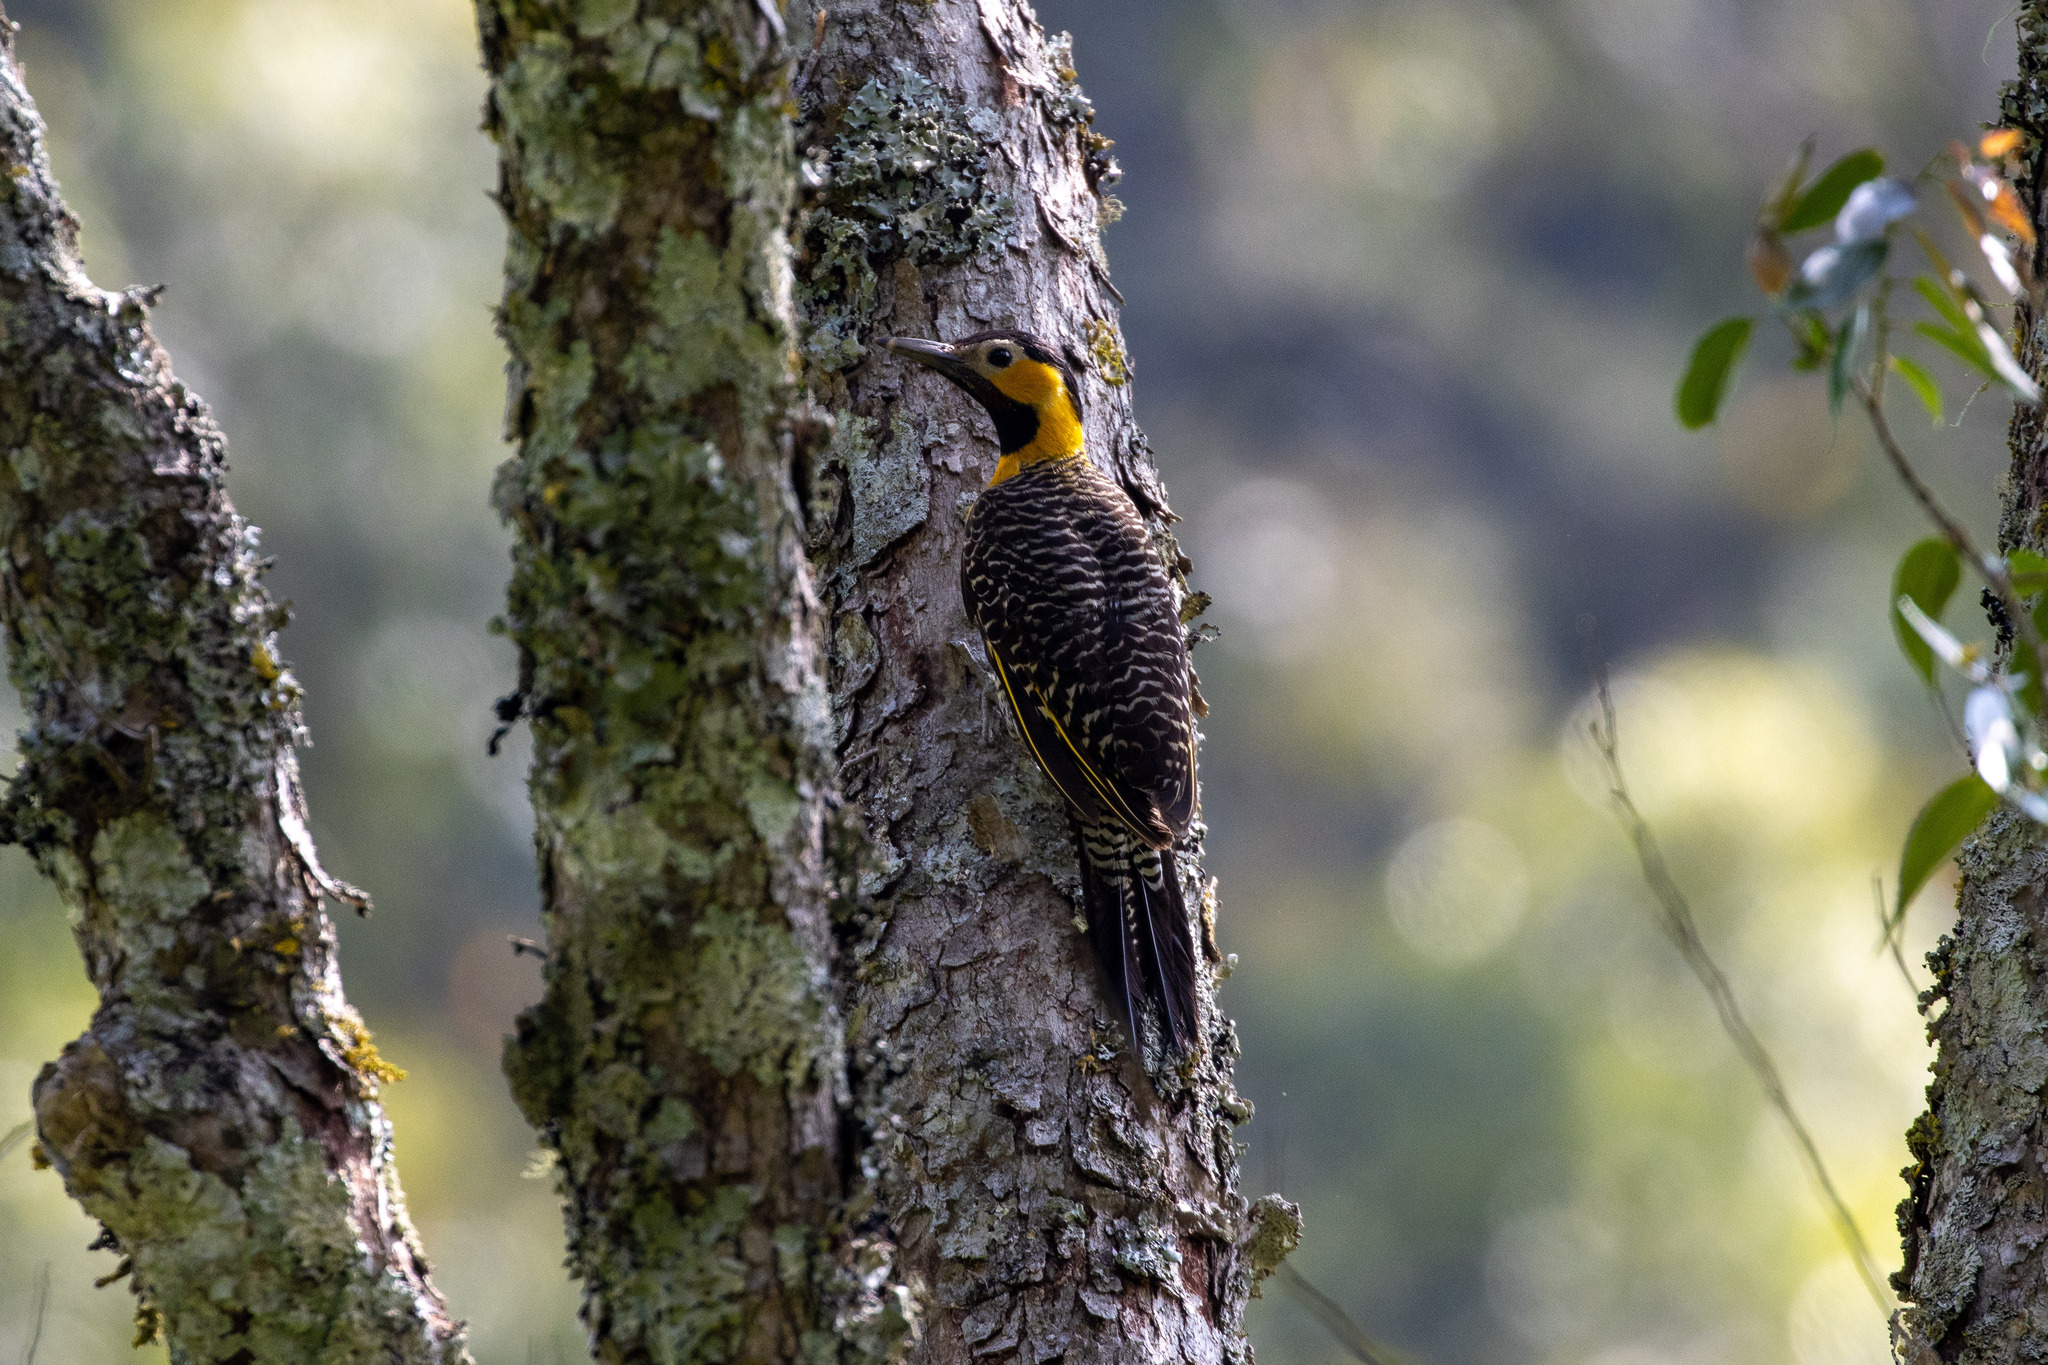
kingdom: Animalia
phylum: Chordata
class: Aves
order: Piciformes
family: Picidae
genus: Colaptes
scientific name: Colaptes campestris
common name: Campo flicker
